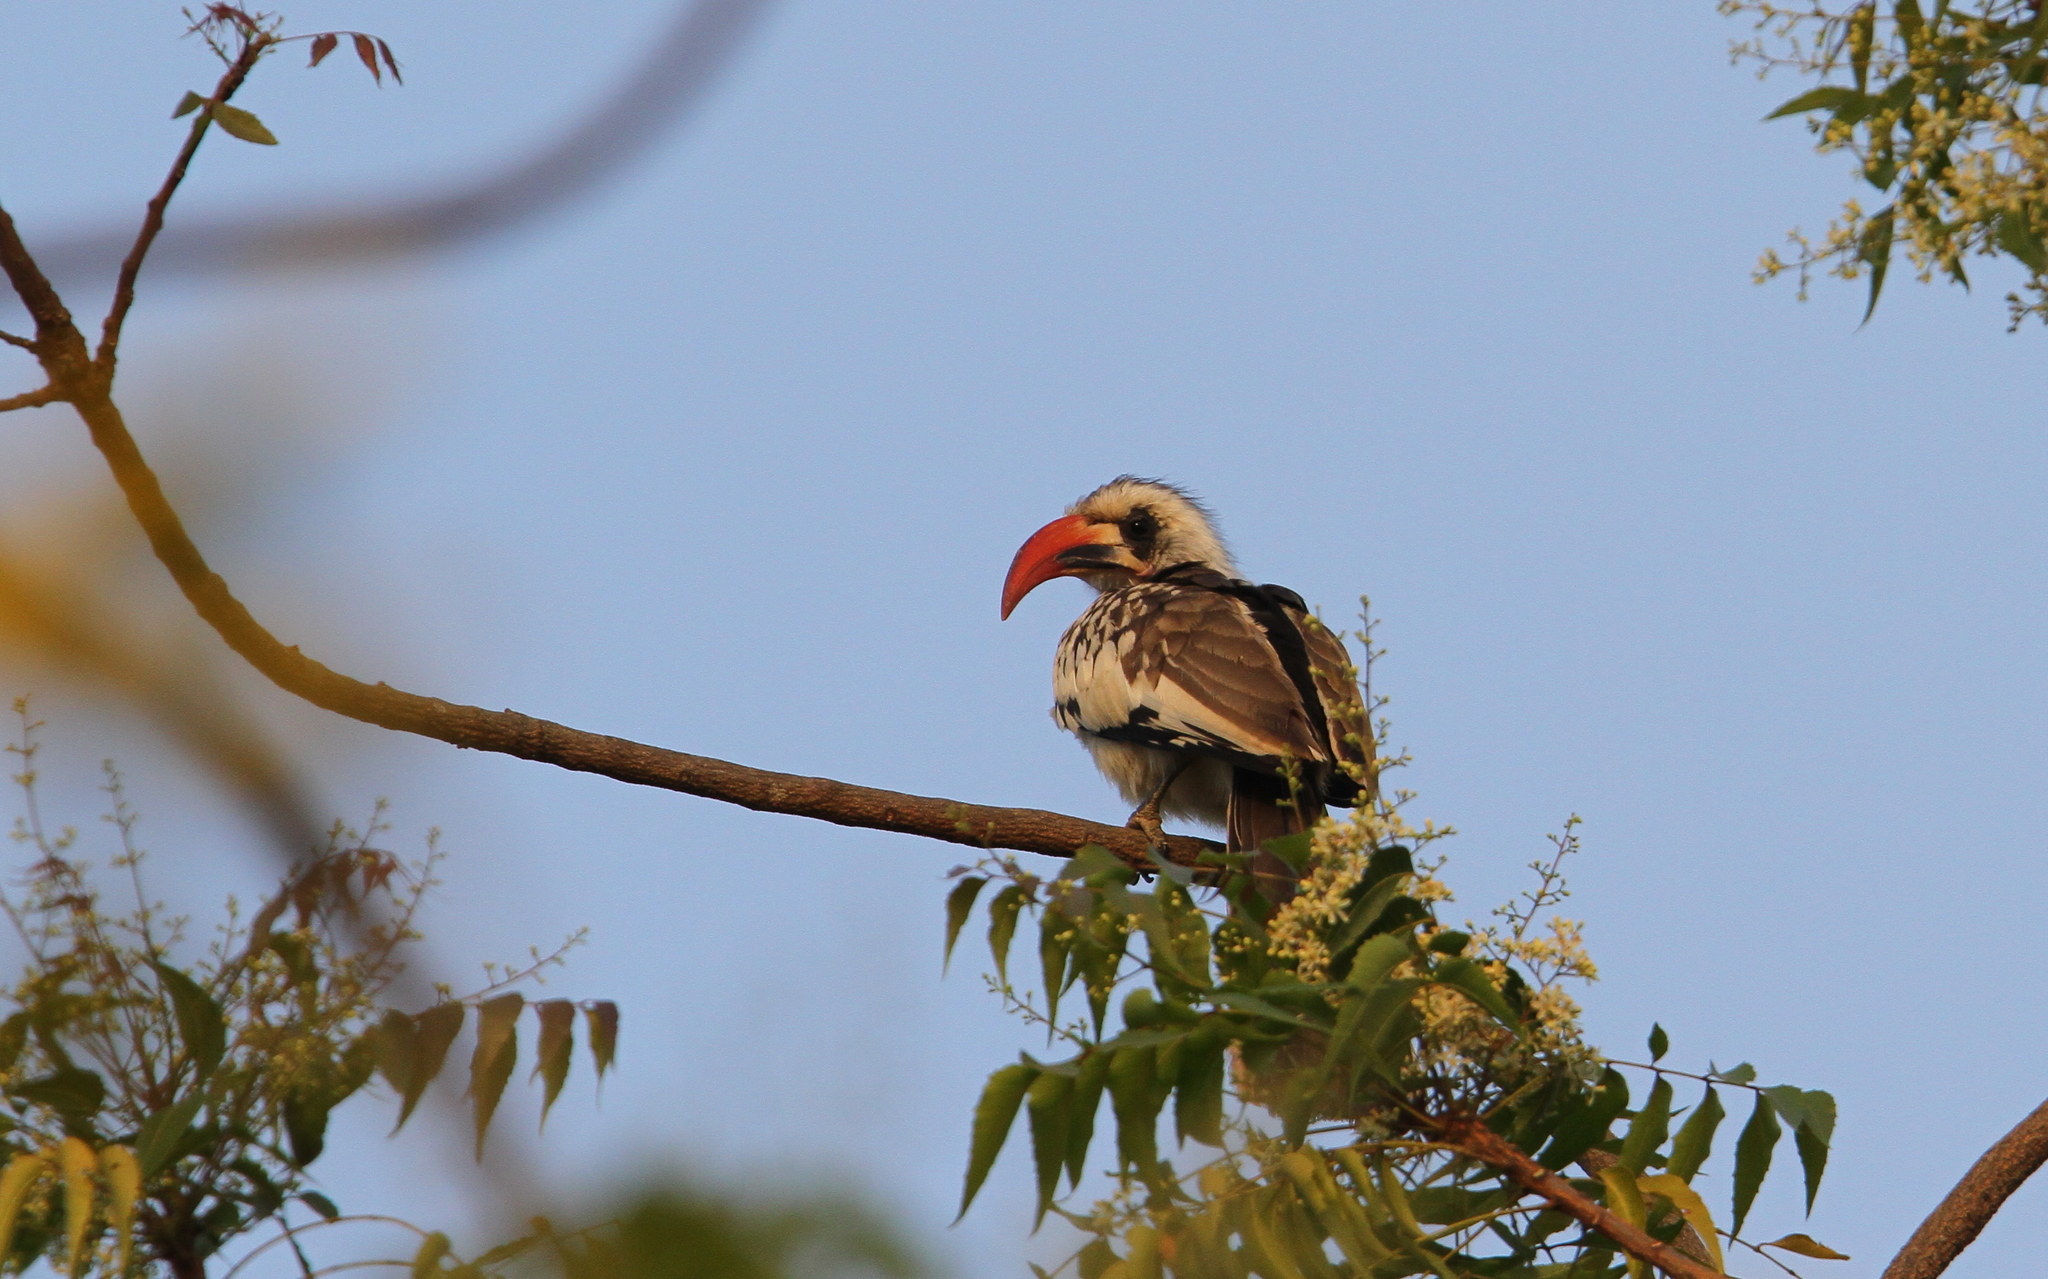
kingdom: Animalia
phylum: Chordata
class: Aves
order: Bucerotiformes
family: Bucerotidae
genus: Tockus
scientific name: Tockus kempi
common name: Western red-billed hornbill
